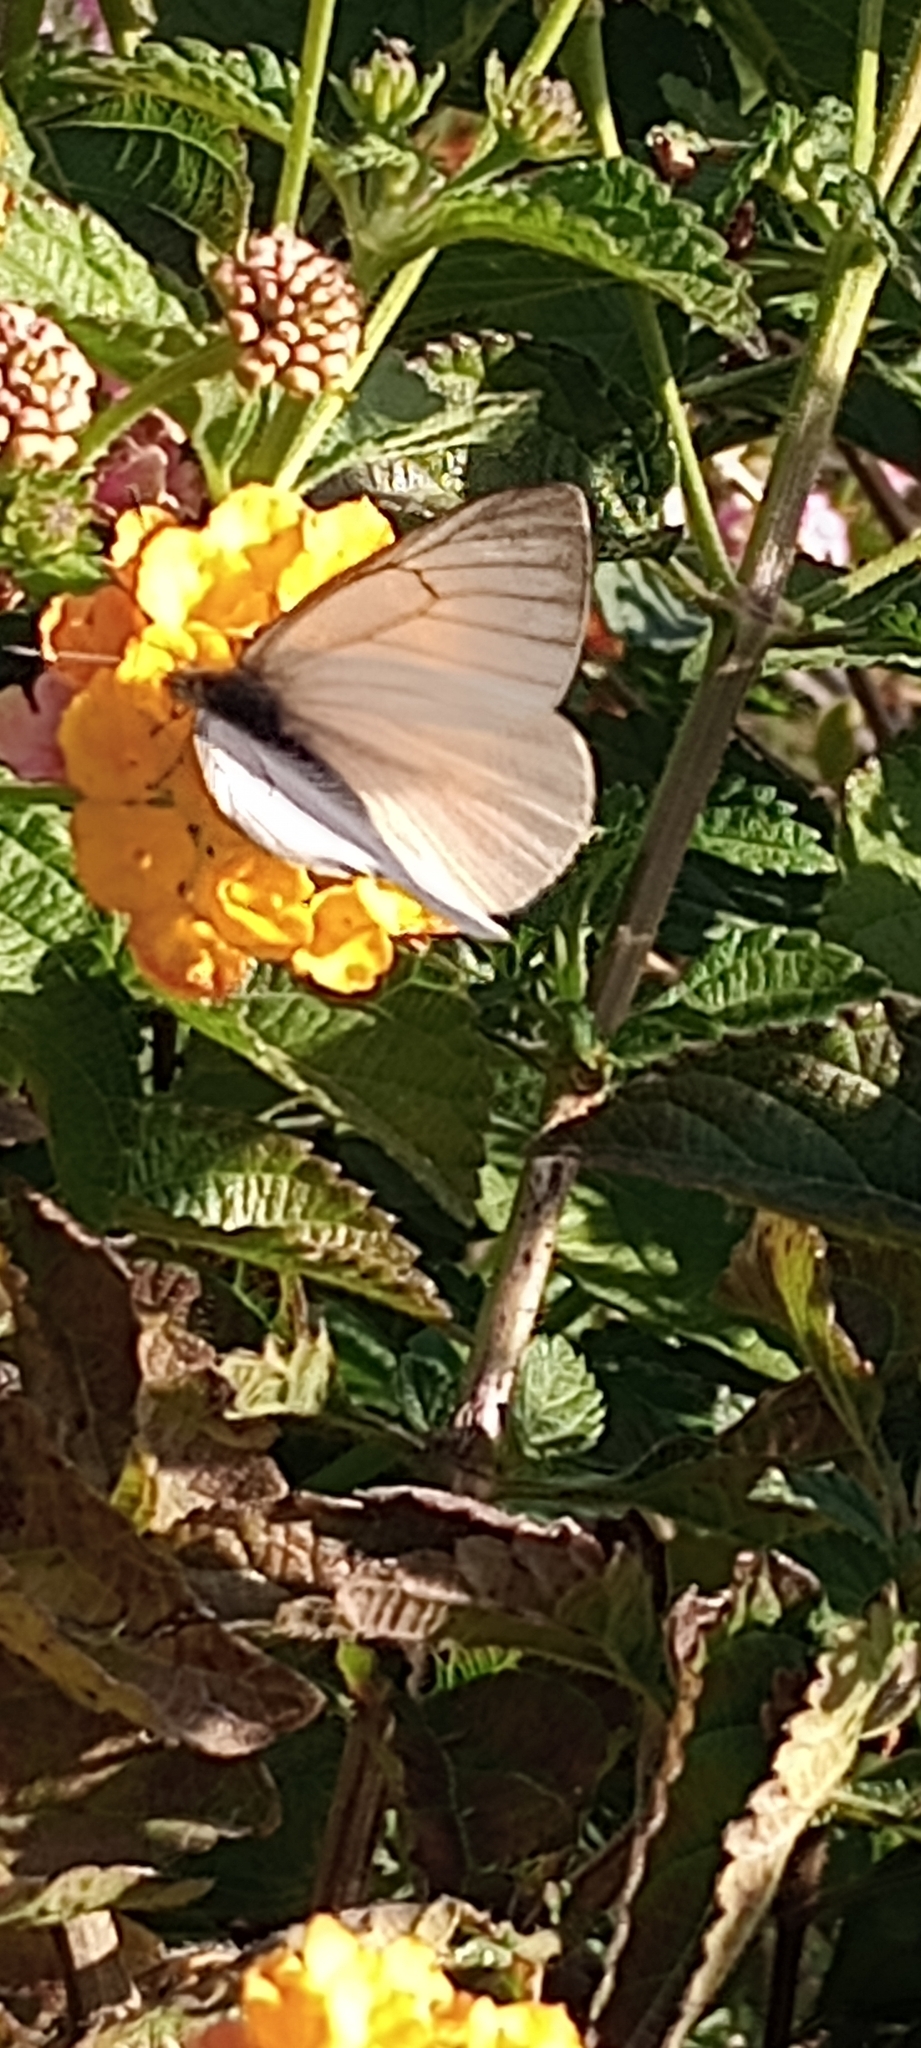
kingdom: Animalia
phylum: Arthropoda
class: Insecta
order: Lepidoptera
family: Pieridae
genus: Theochila
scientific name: Theochila maenacte
